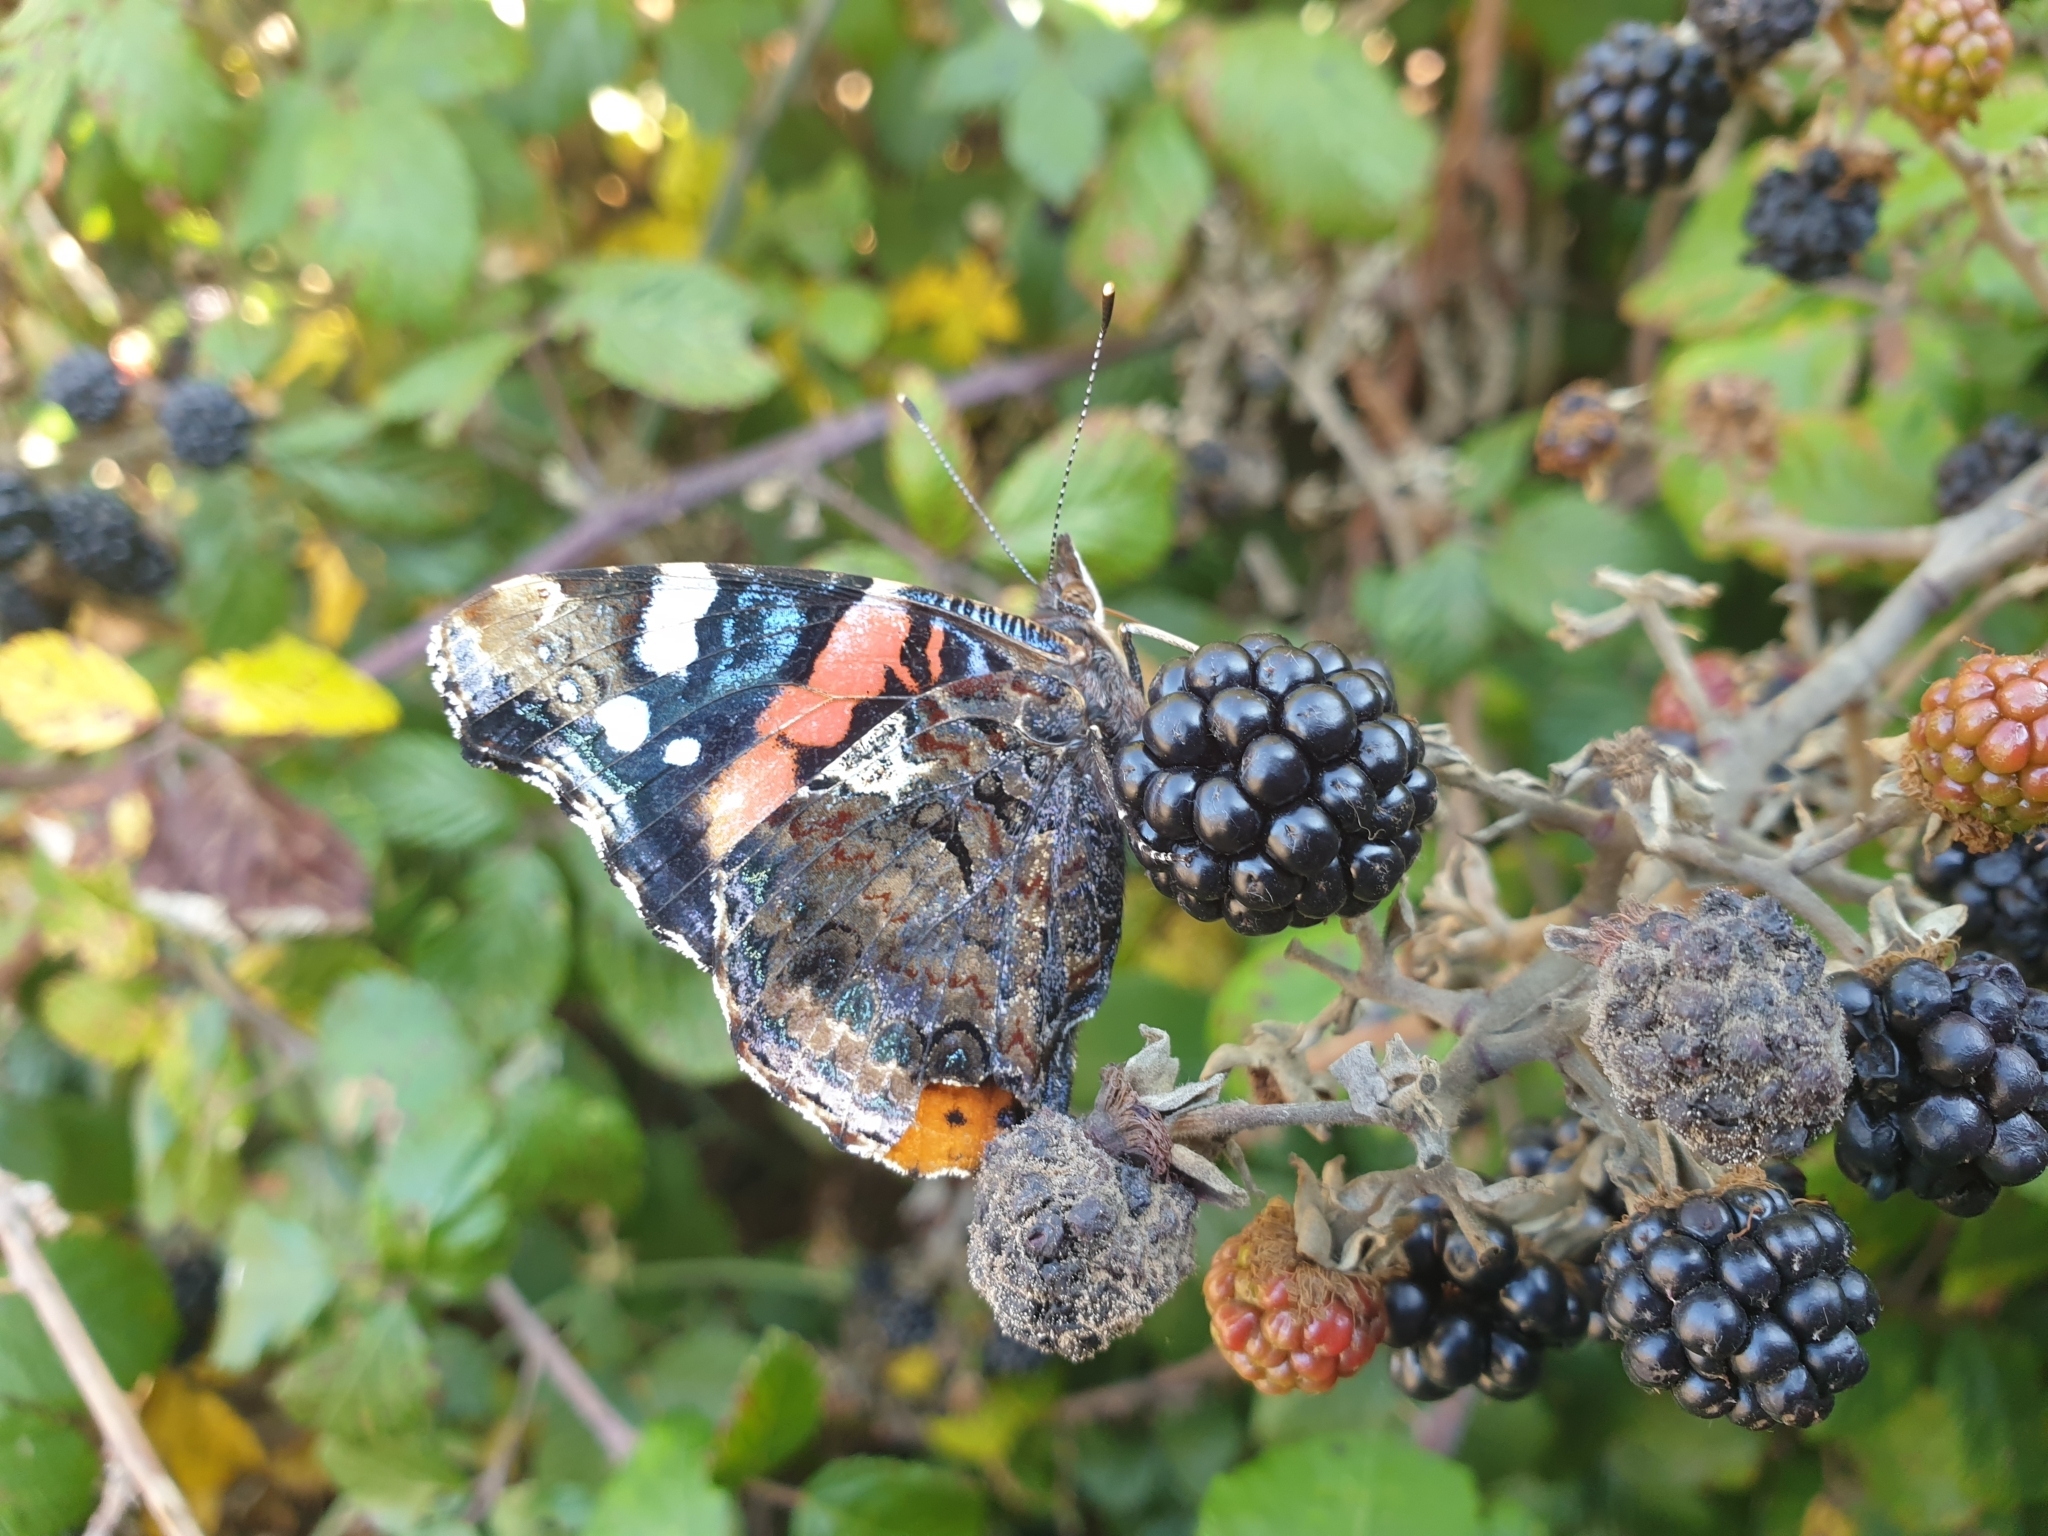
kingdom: Animalia
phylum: Arthropoda
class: Insecta
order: Lepidoptera
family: Nymphalidae
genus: Vanessa
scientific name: Vanessa atalanta
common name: Red admiral
